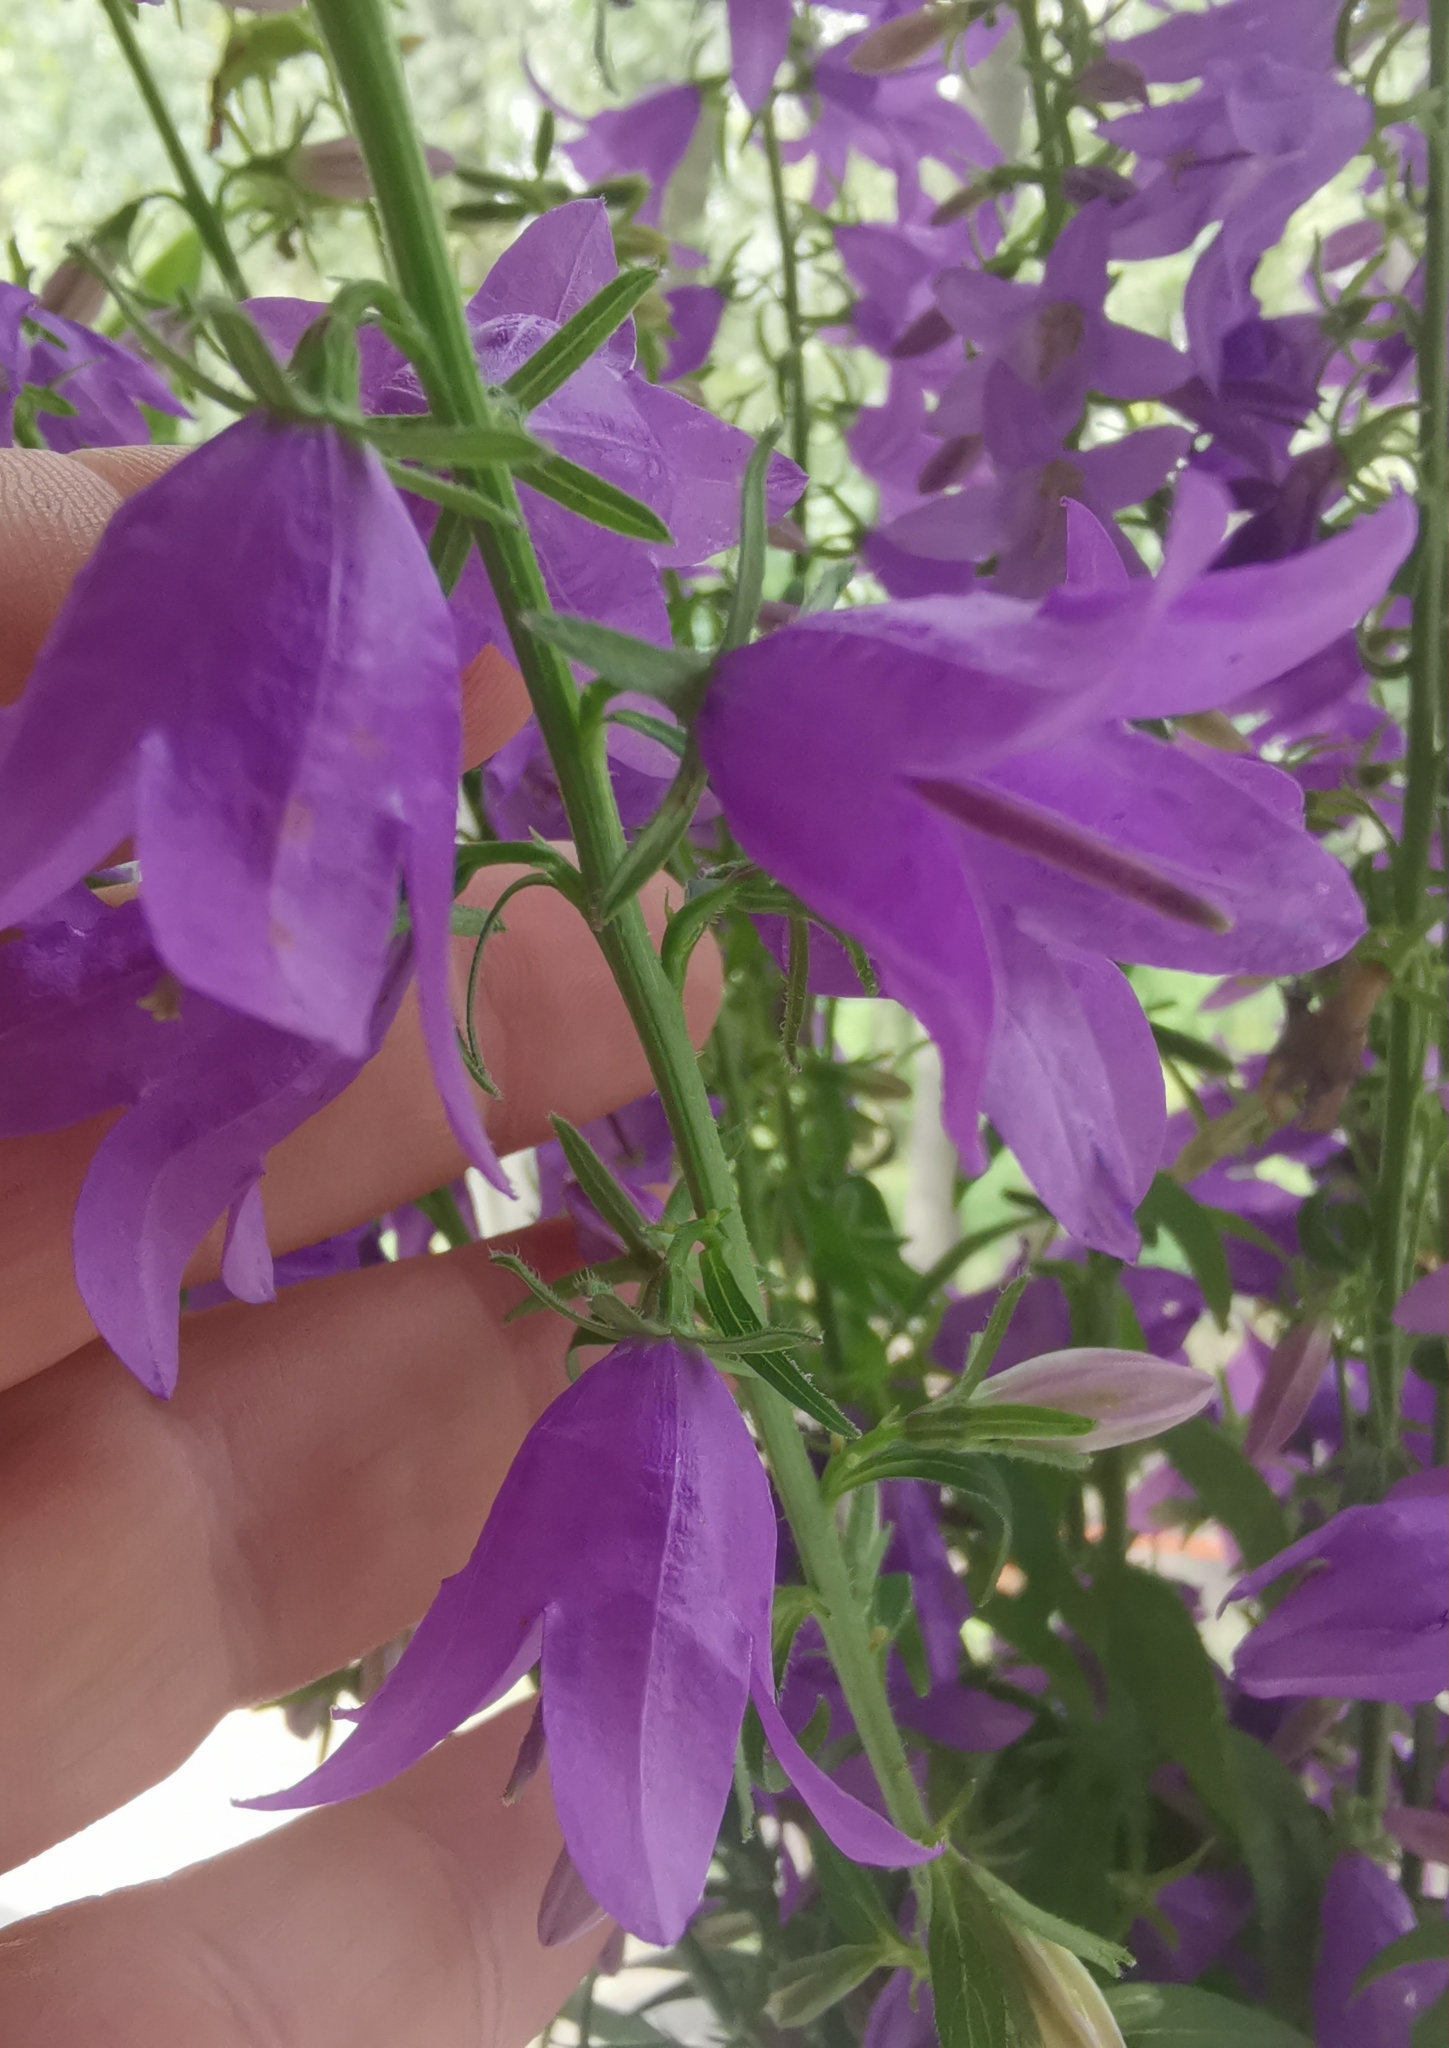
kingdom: Plantae
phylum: Tracheophyta
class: Magnoliopsida
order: Asterales
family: Campanulaceae
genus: Campanula
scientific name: Campanula rapunculoides
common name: Creeping bellflower
